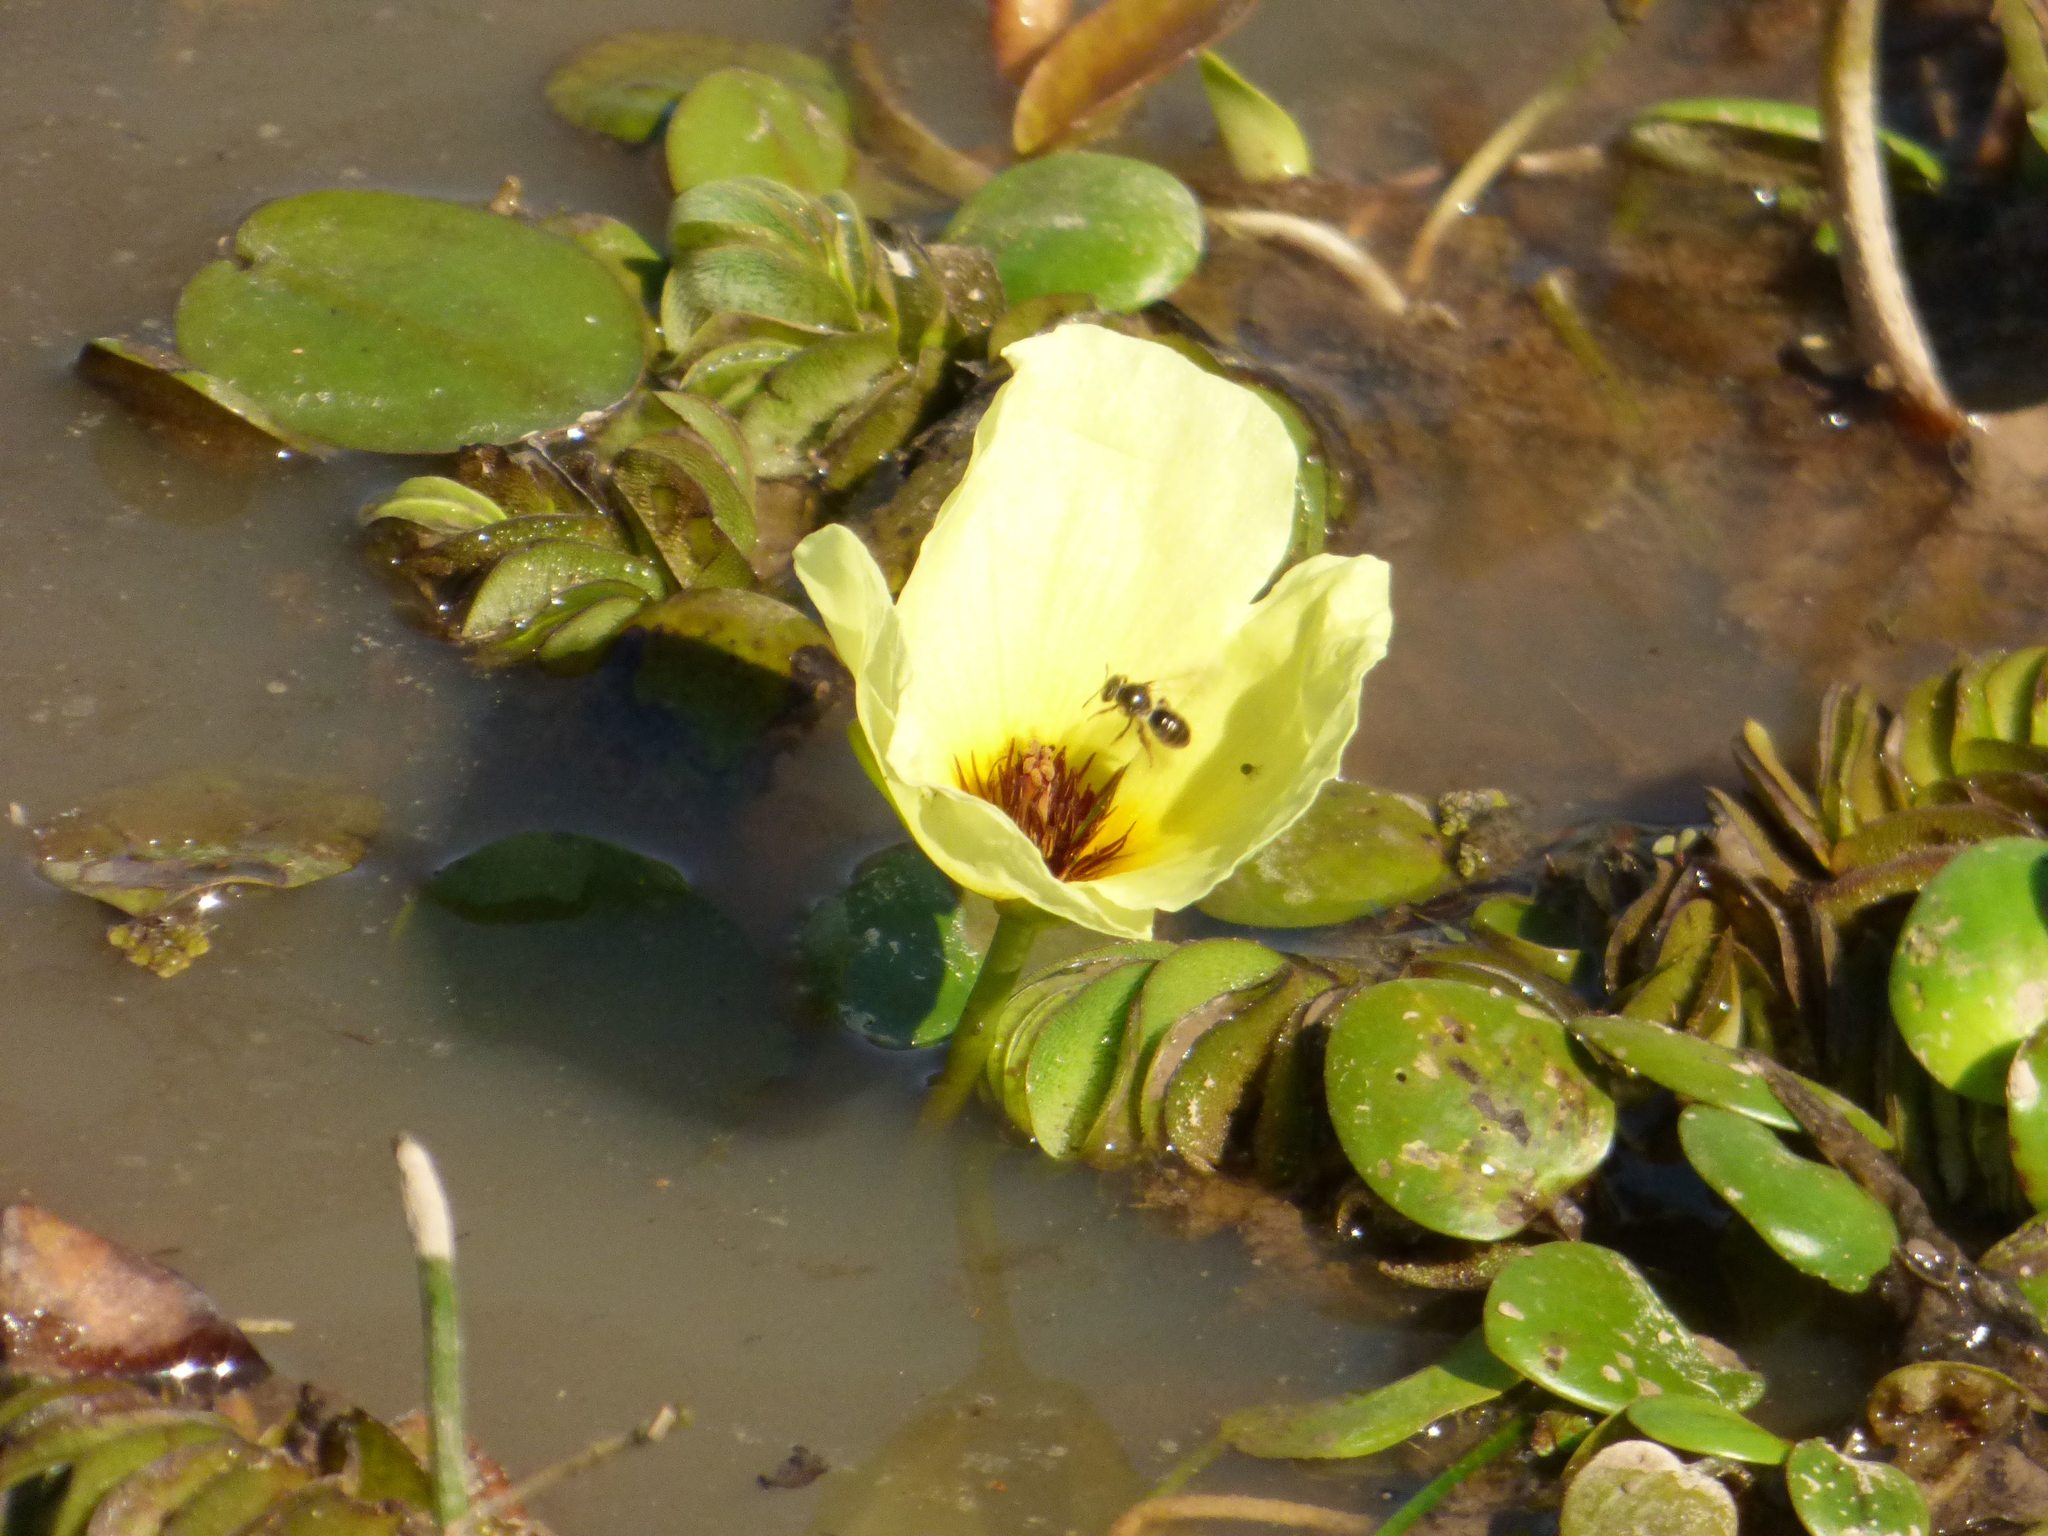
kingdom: Plantae
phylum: Tracheophyta
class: Liliopsida
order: Alismatales
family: Alismataceae
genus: Hydrocleys
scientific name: Hydrocleys nymphoides
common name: Water-poppy
